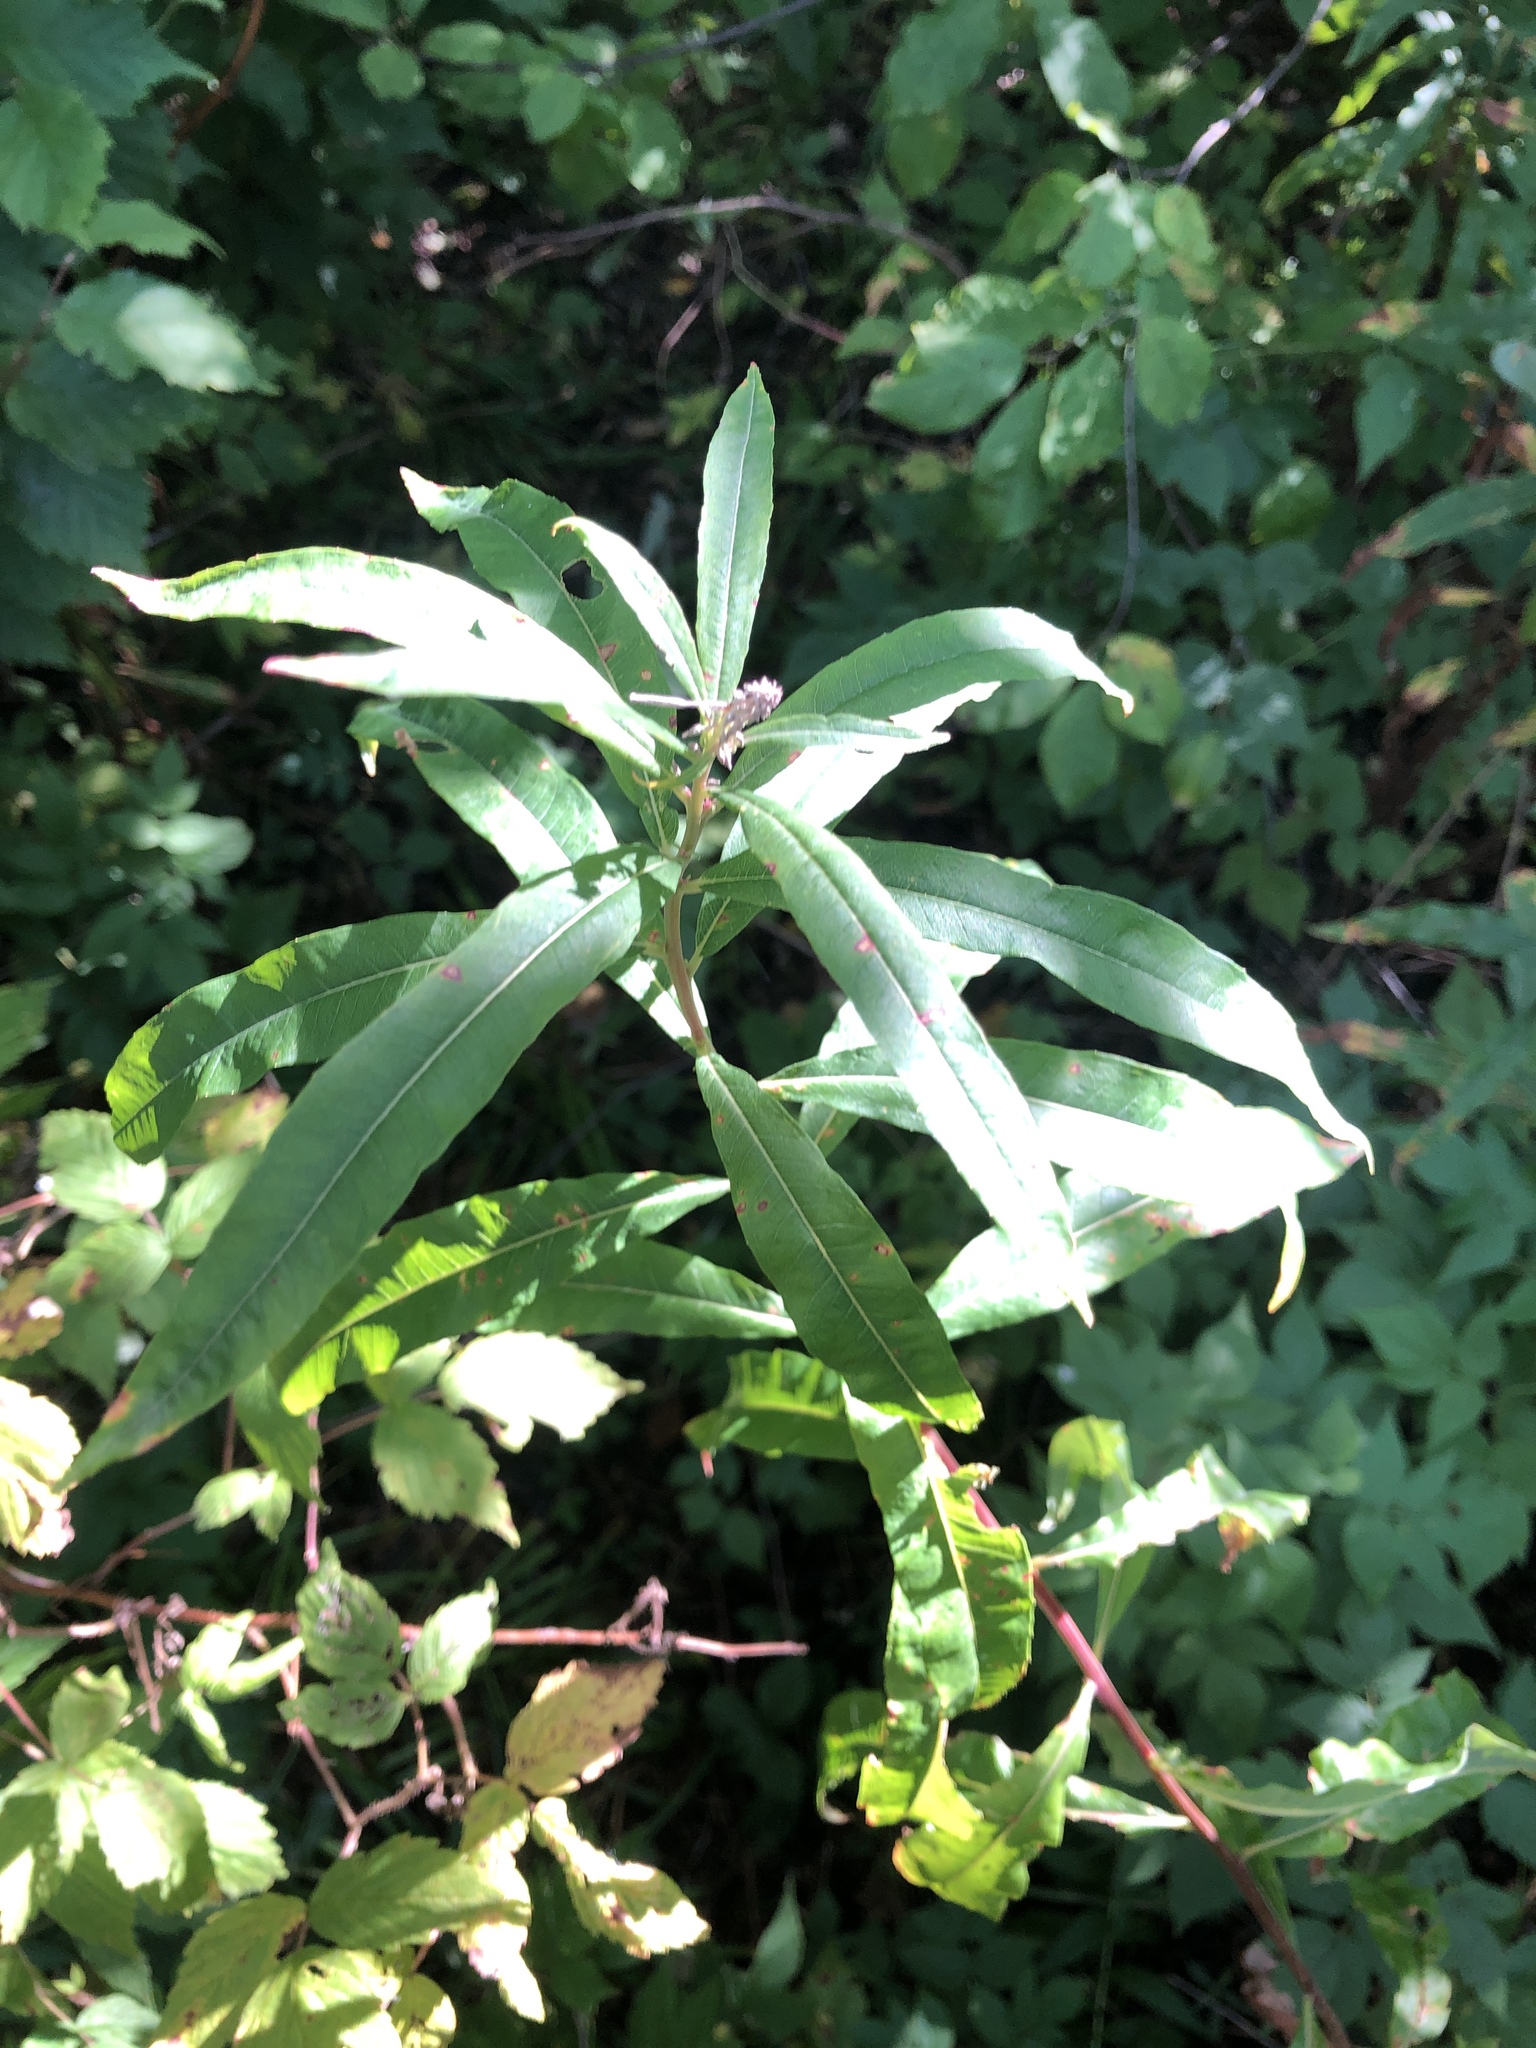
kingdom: Plantae
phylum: Tracheophyta
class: Magnoliopsida
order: Myrtales
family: Onagraceae
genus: Chamaenerion
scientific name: Chamaenerion angustifolium
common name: Fireweed
